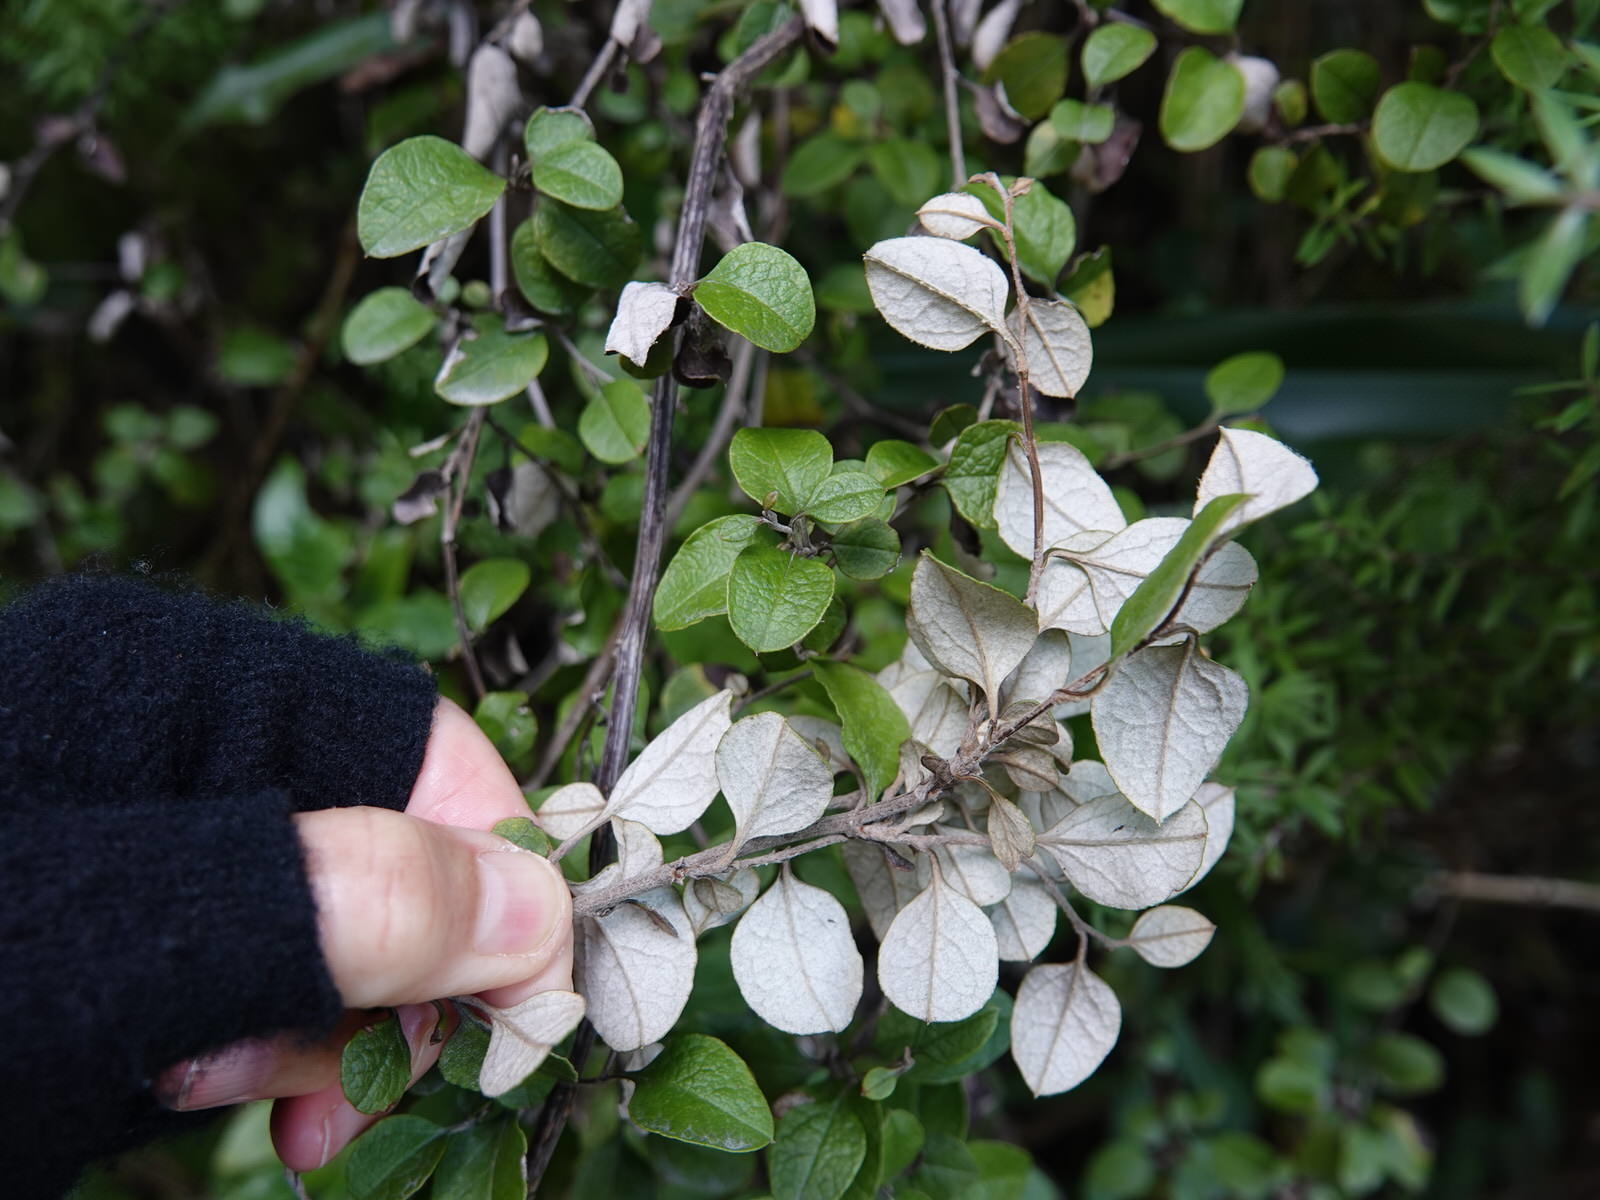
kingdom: Plantae
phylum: Tracheophyta
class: Magnoliopsida
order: Asterales
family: Asteraceae
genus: Ozothamnus
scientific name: Ozothamnus glomeratus
